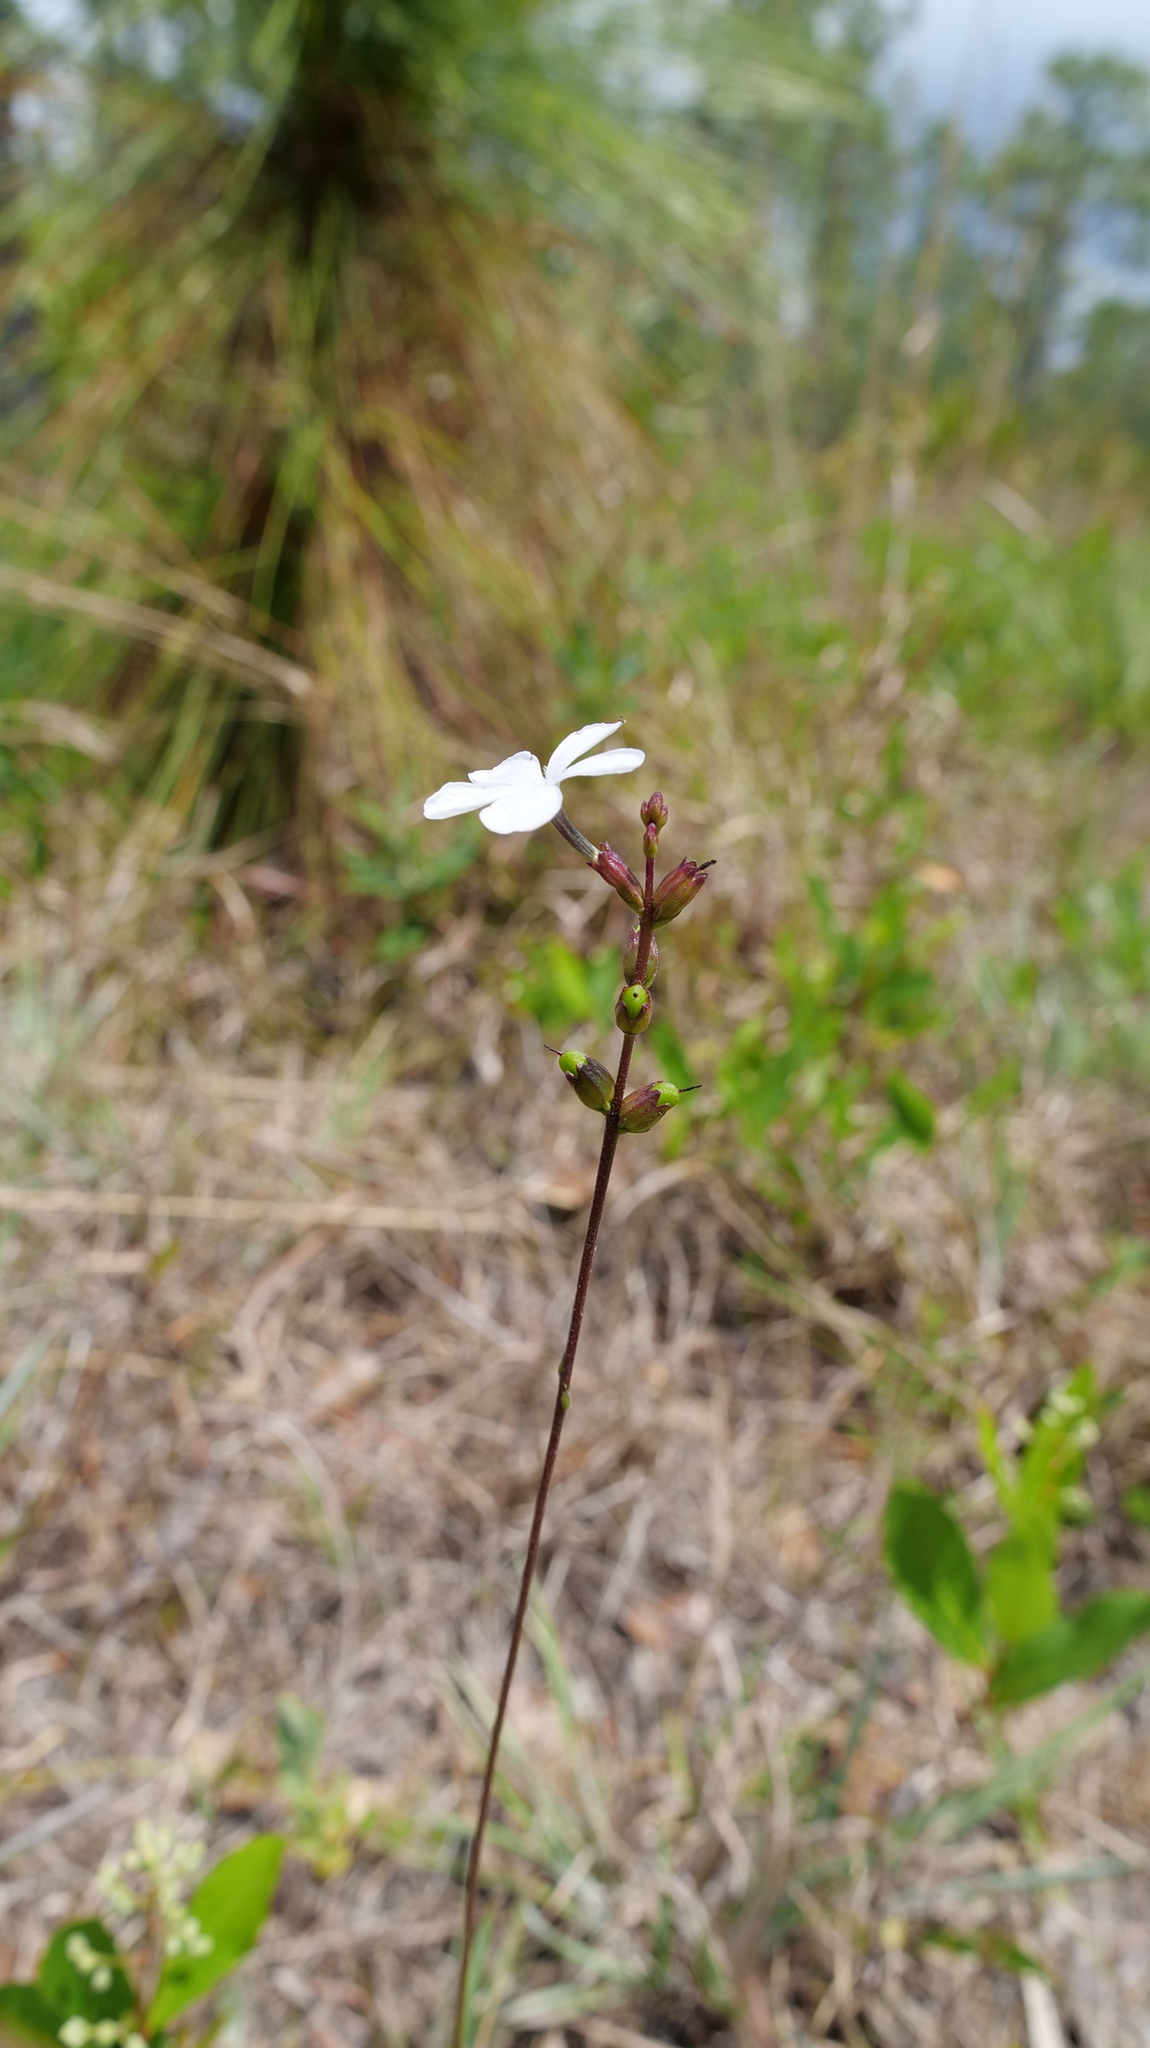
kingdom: Plantae
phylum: Tracheophyta
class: Magnoliopsida
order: Lamiales
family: Orobanchaceae
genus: Buchnera
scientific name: Buchnera floridana
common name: Florida bluehearts
